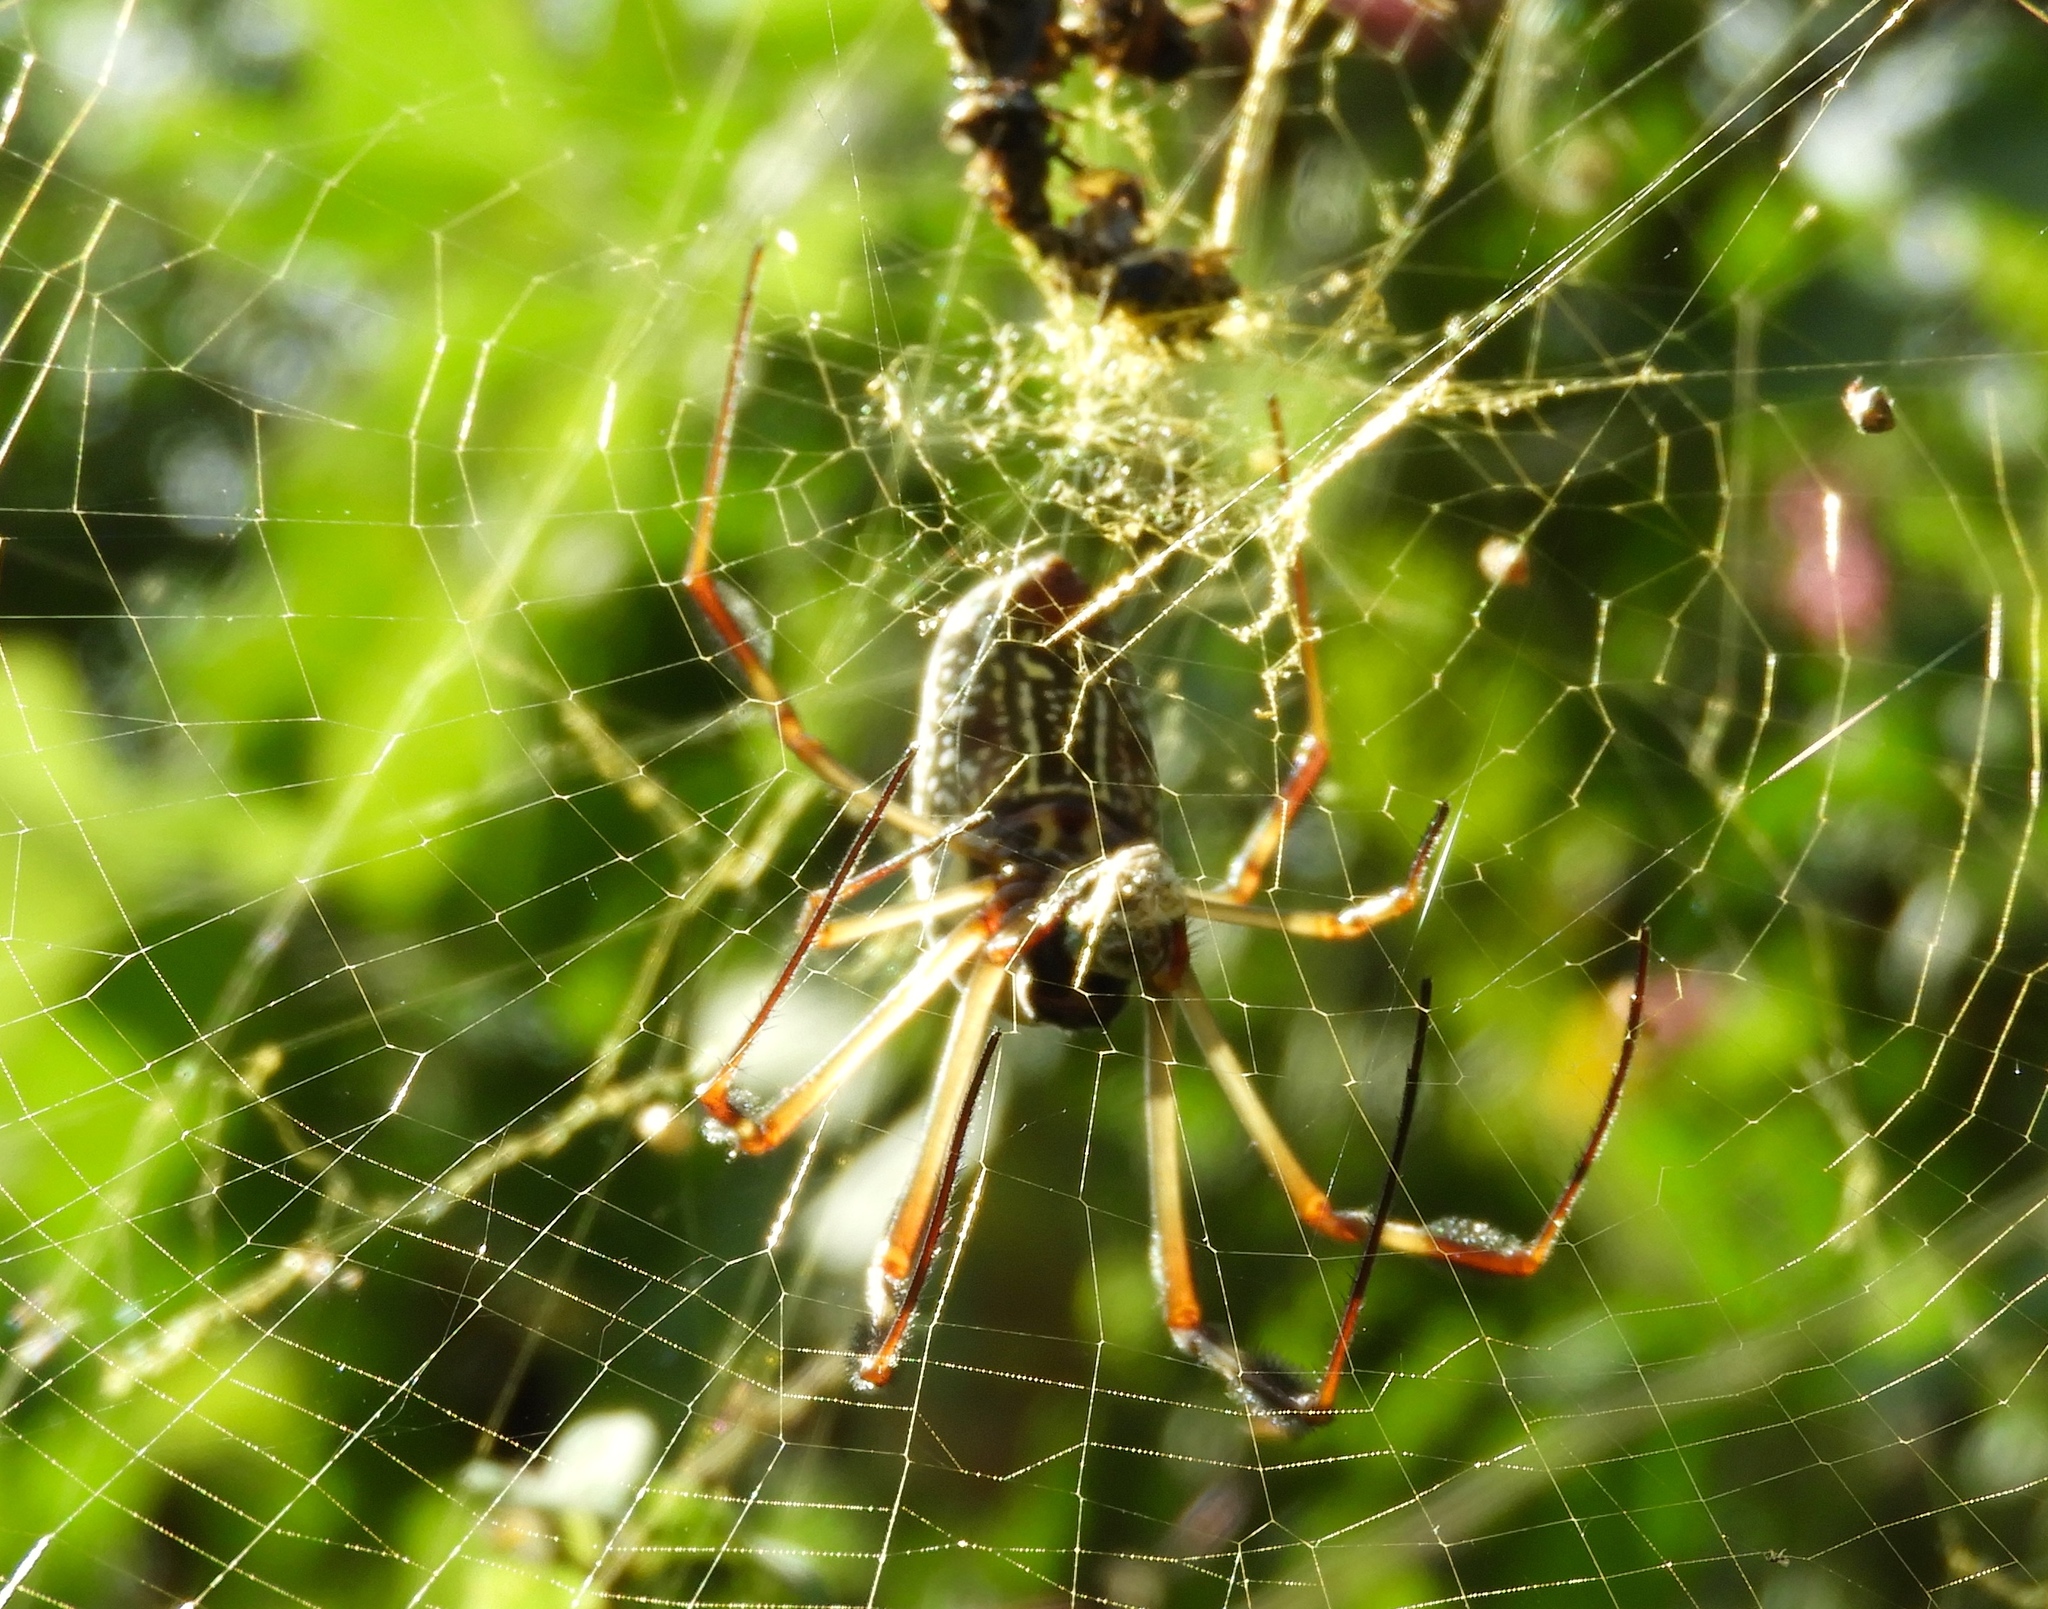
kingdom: Animalia
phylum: Arthropoda
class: Arachnida
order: Araneae
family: Araneidae
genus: Trichonephila
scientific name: Trichonephila clavipes
